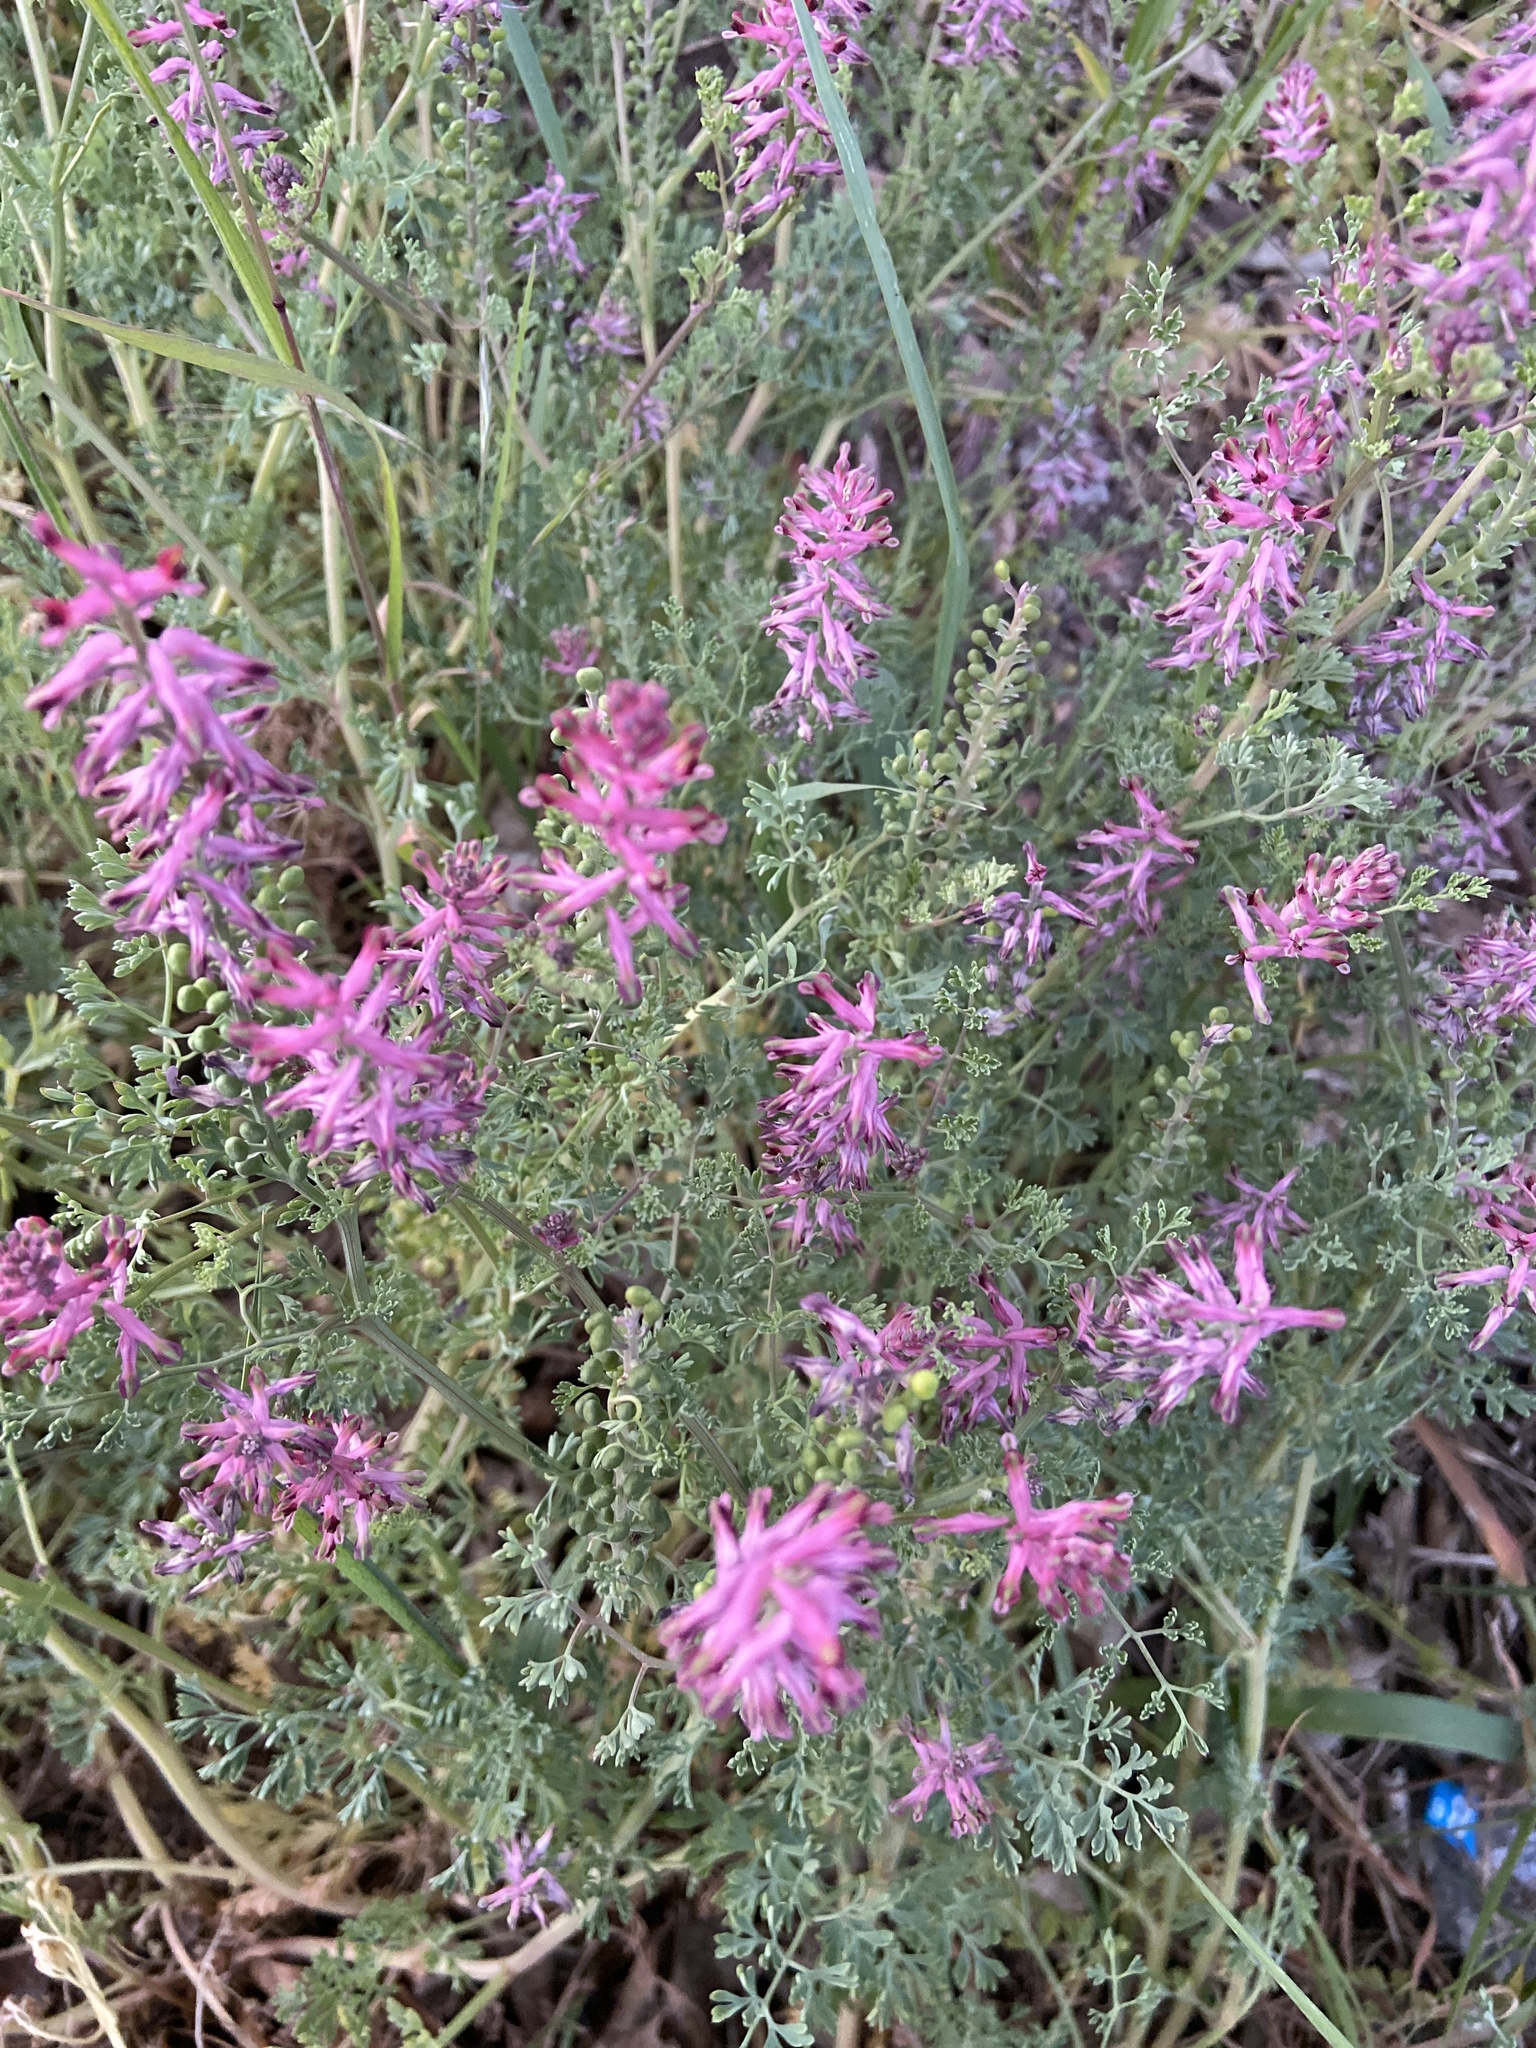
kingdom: Plantae
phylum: Tracheophyta
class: Magnoliopsida
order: Ranunculales
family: Papaveraceae
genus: Fumaria
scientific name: Fumaria officinalis
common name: Common fumitory
